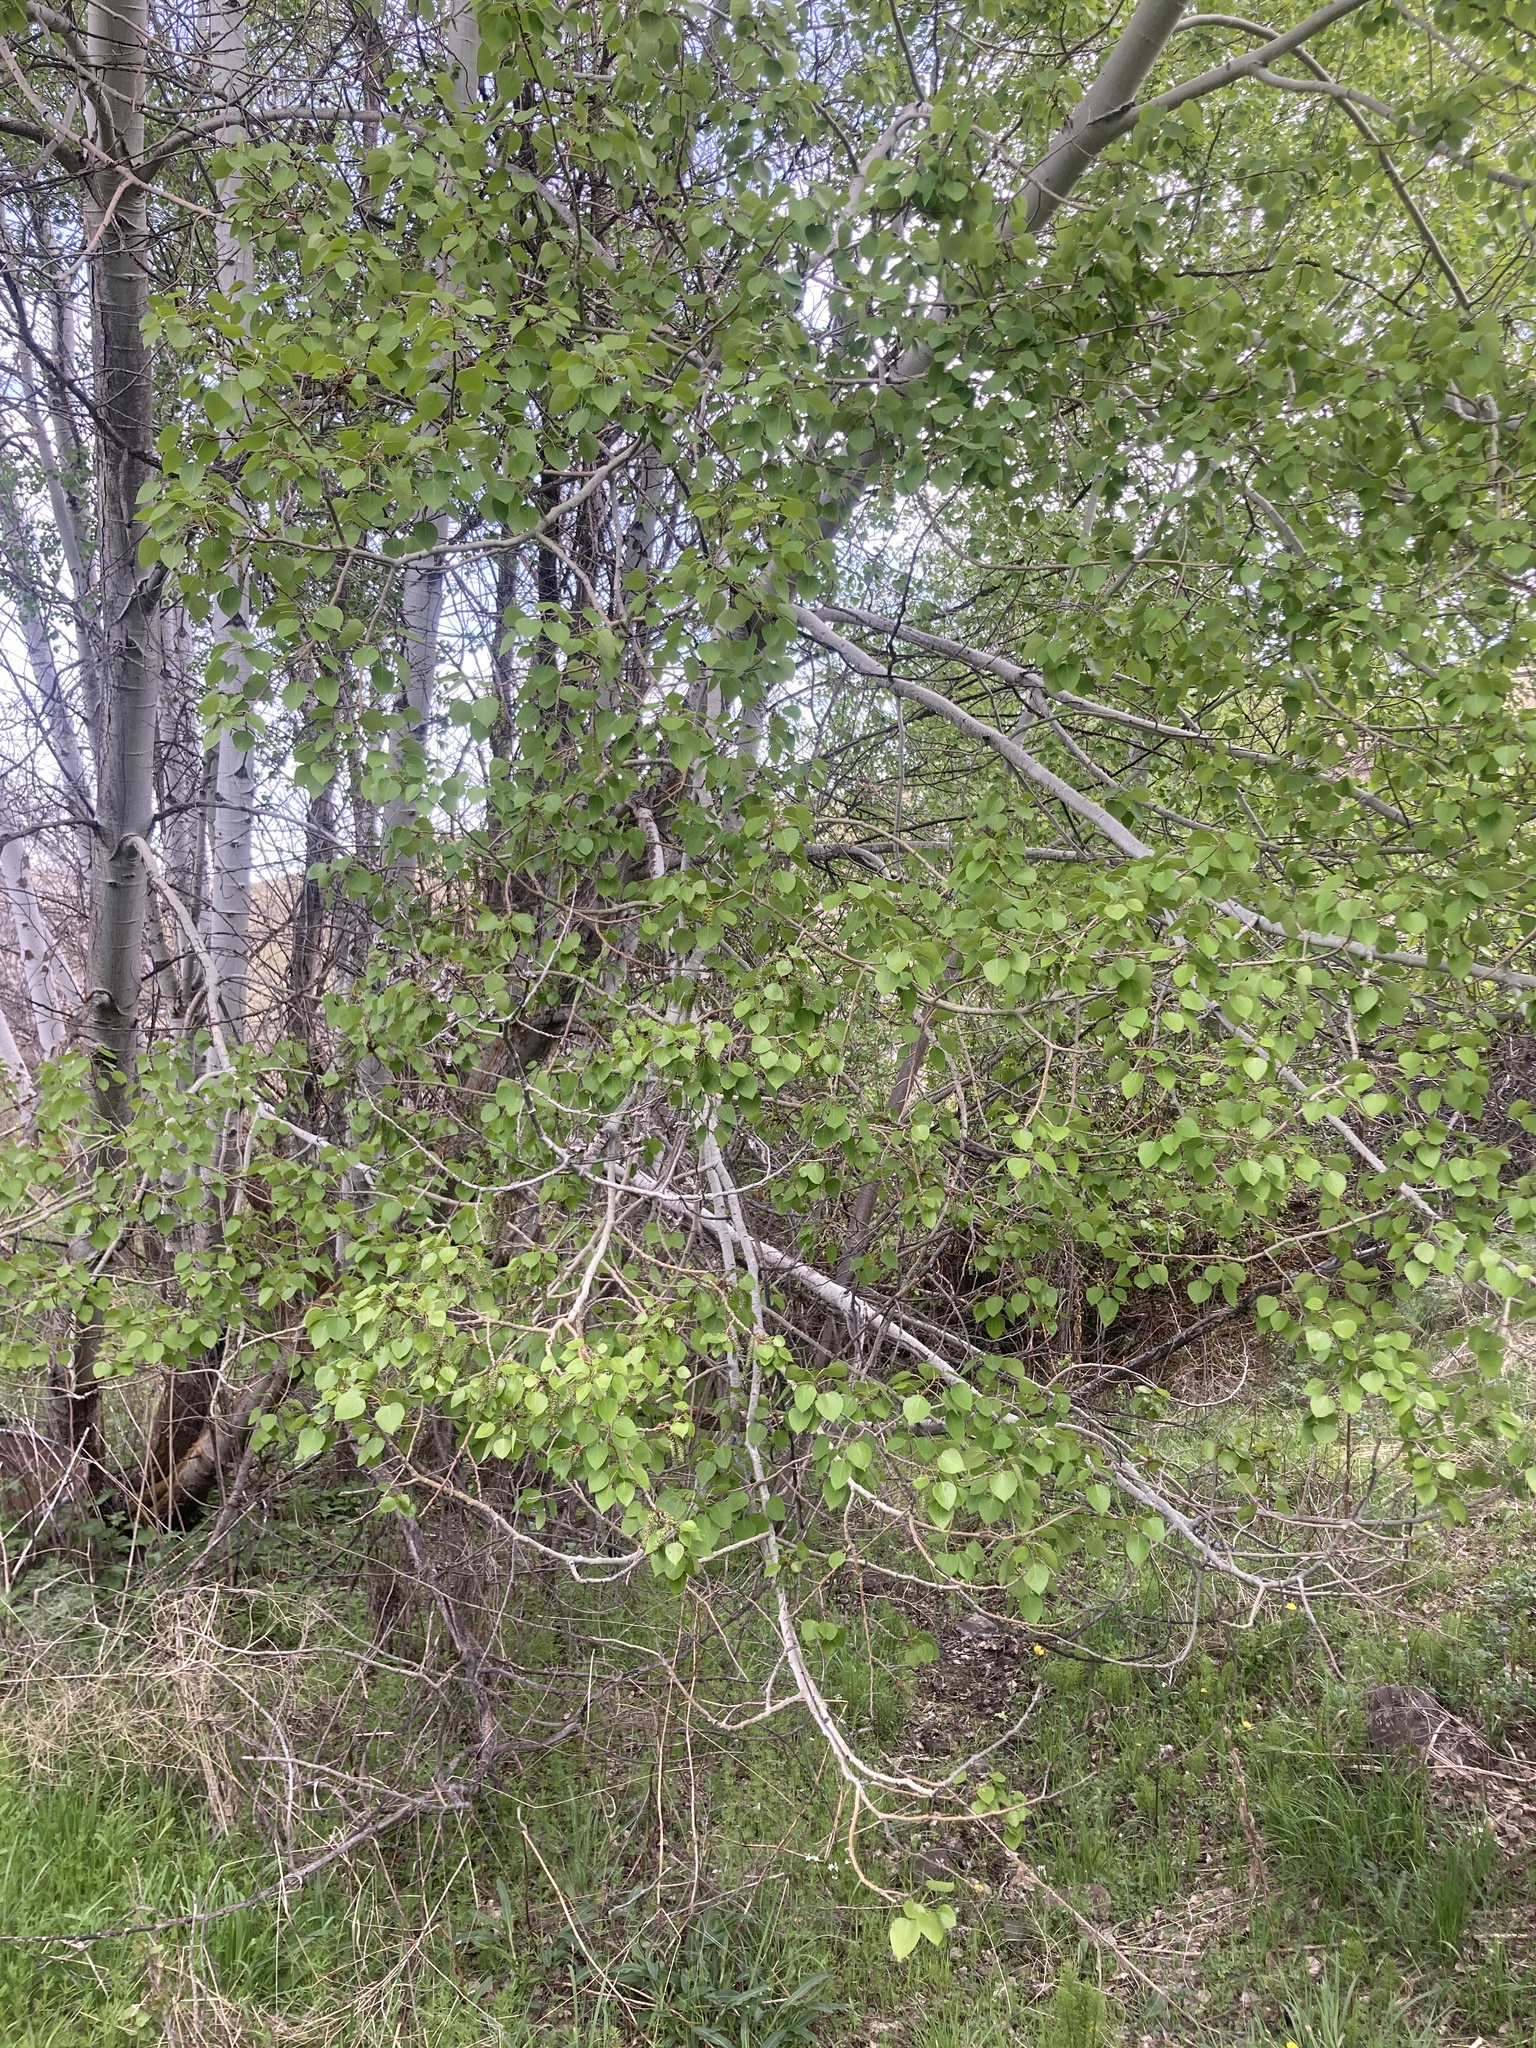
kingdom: Plantae
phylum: Tracheophyta
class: Magnoliopsida
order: Malpighiales
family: Salicaceae
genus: Populus
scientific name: Populus tremuloides
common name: Quaking aspen
